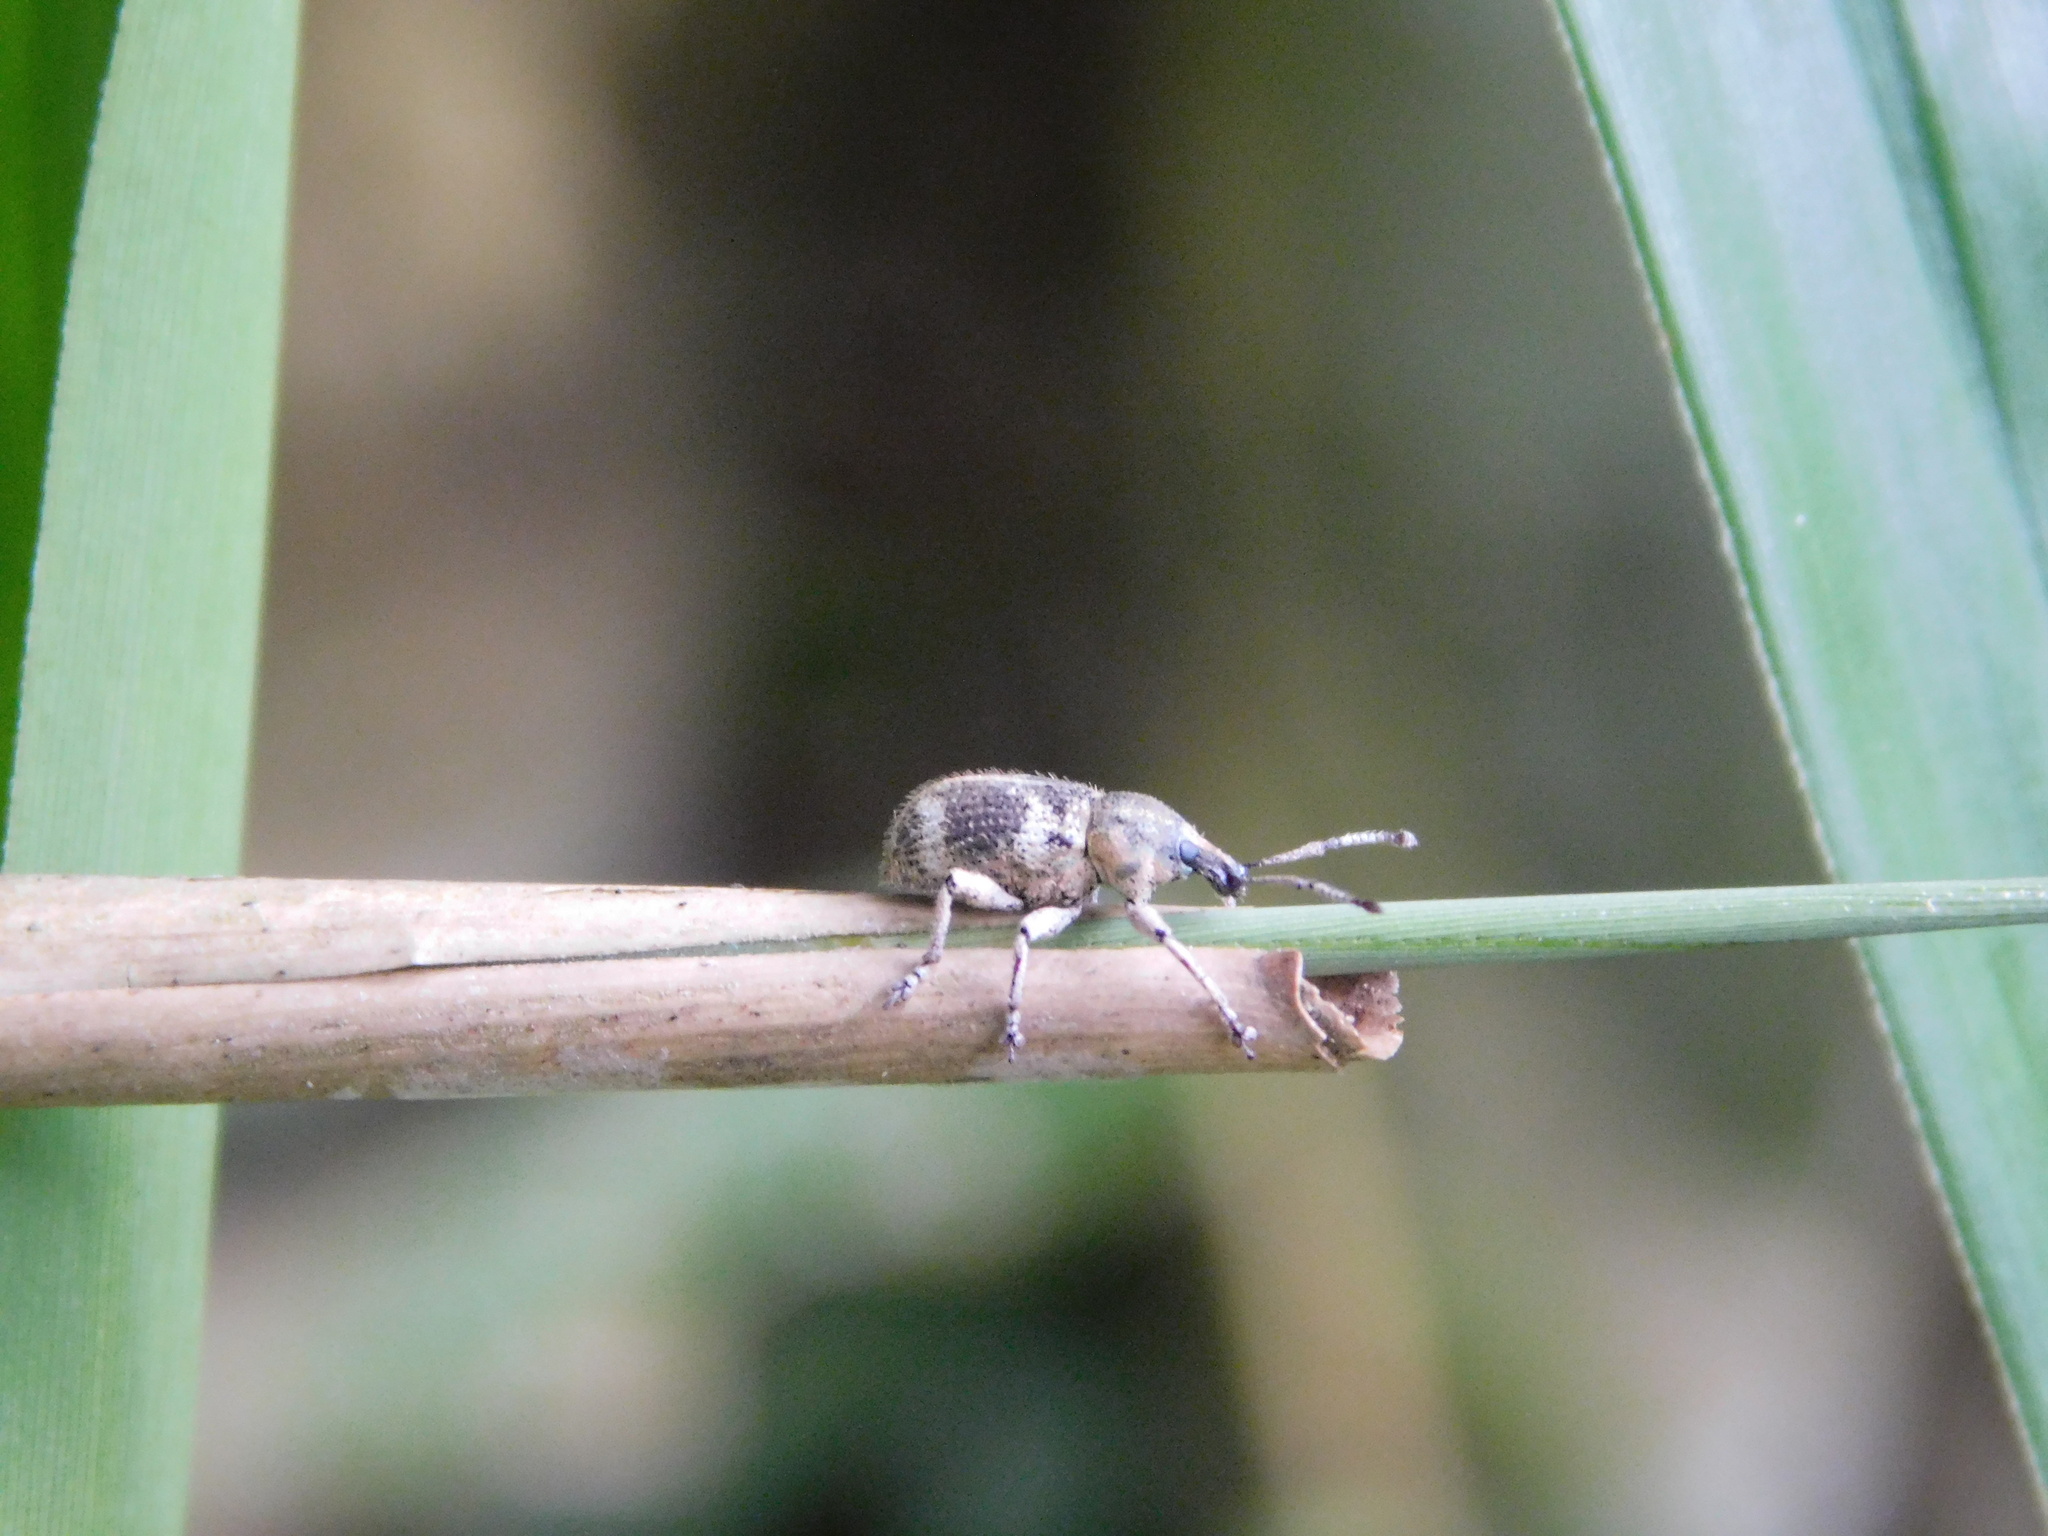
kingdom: Animalia
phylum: Arthropoda
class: Insecta
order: Coleoptera
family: Curculionidae
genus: Phytoscaphus
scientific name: Phytoscaphus triangularis
